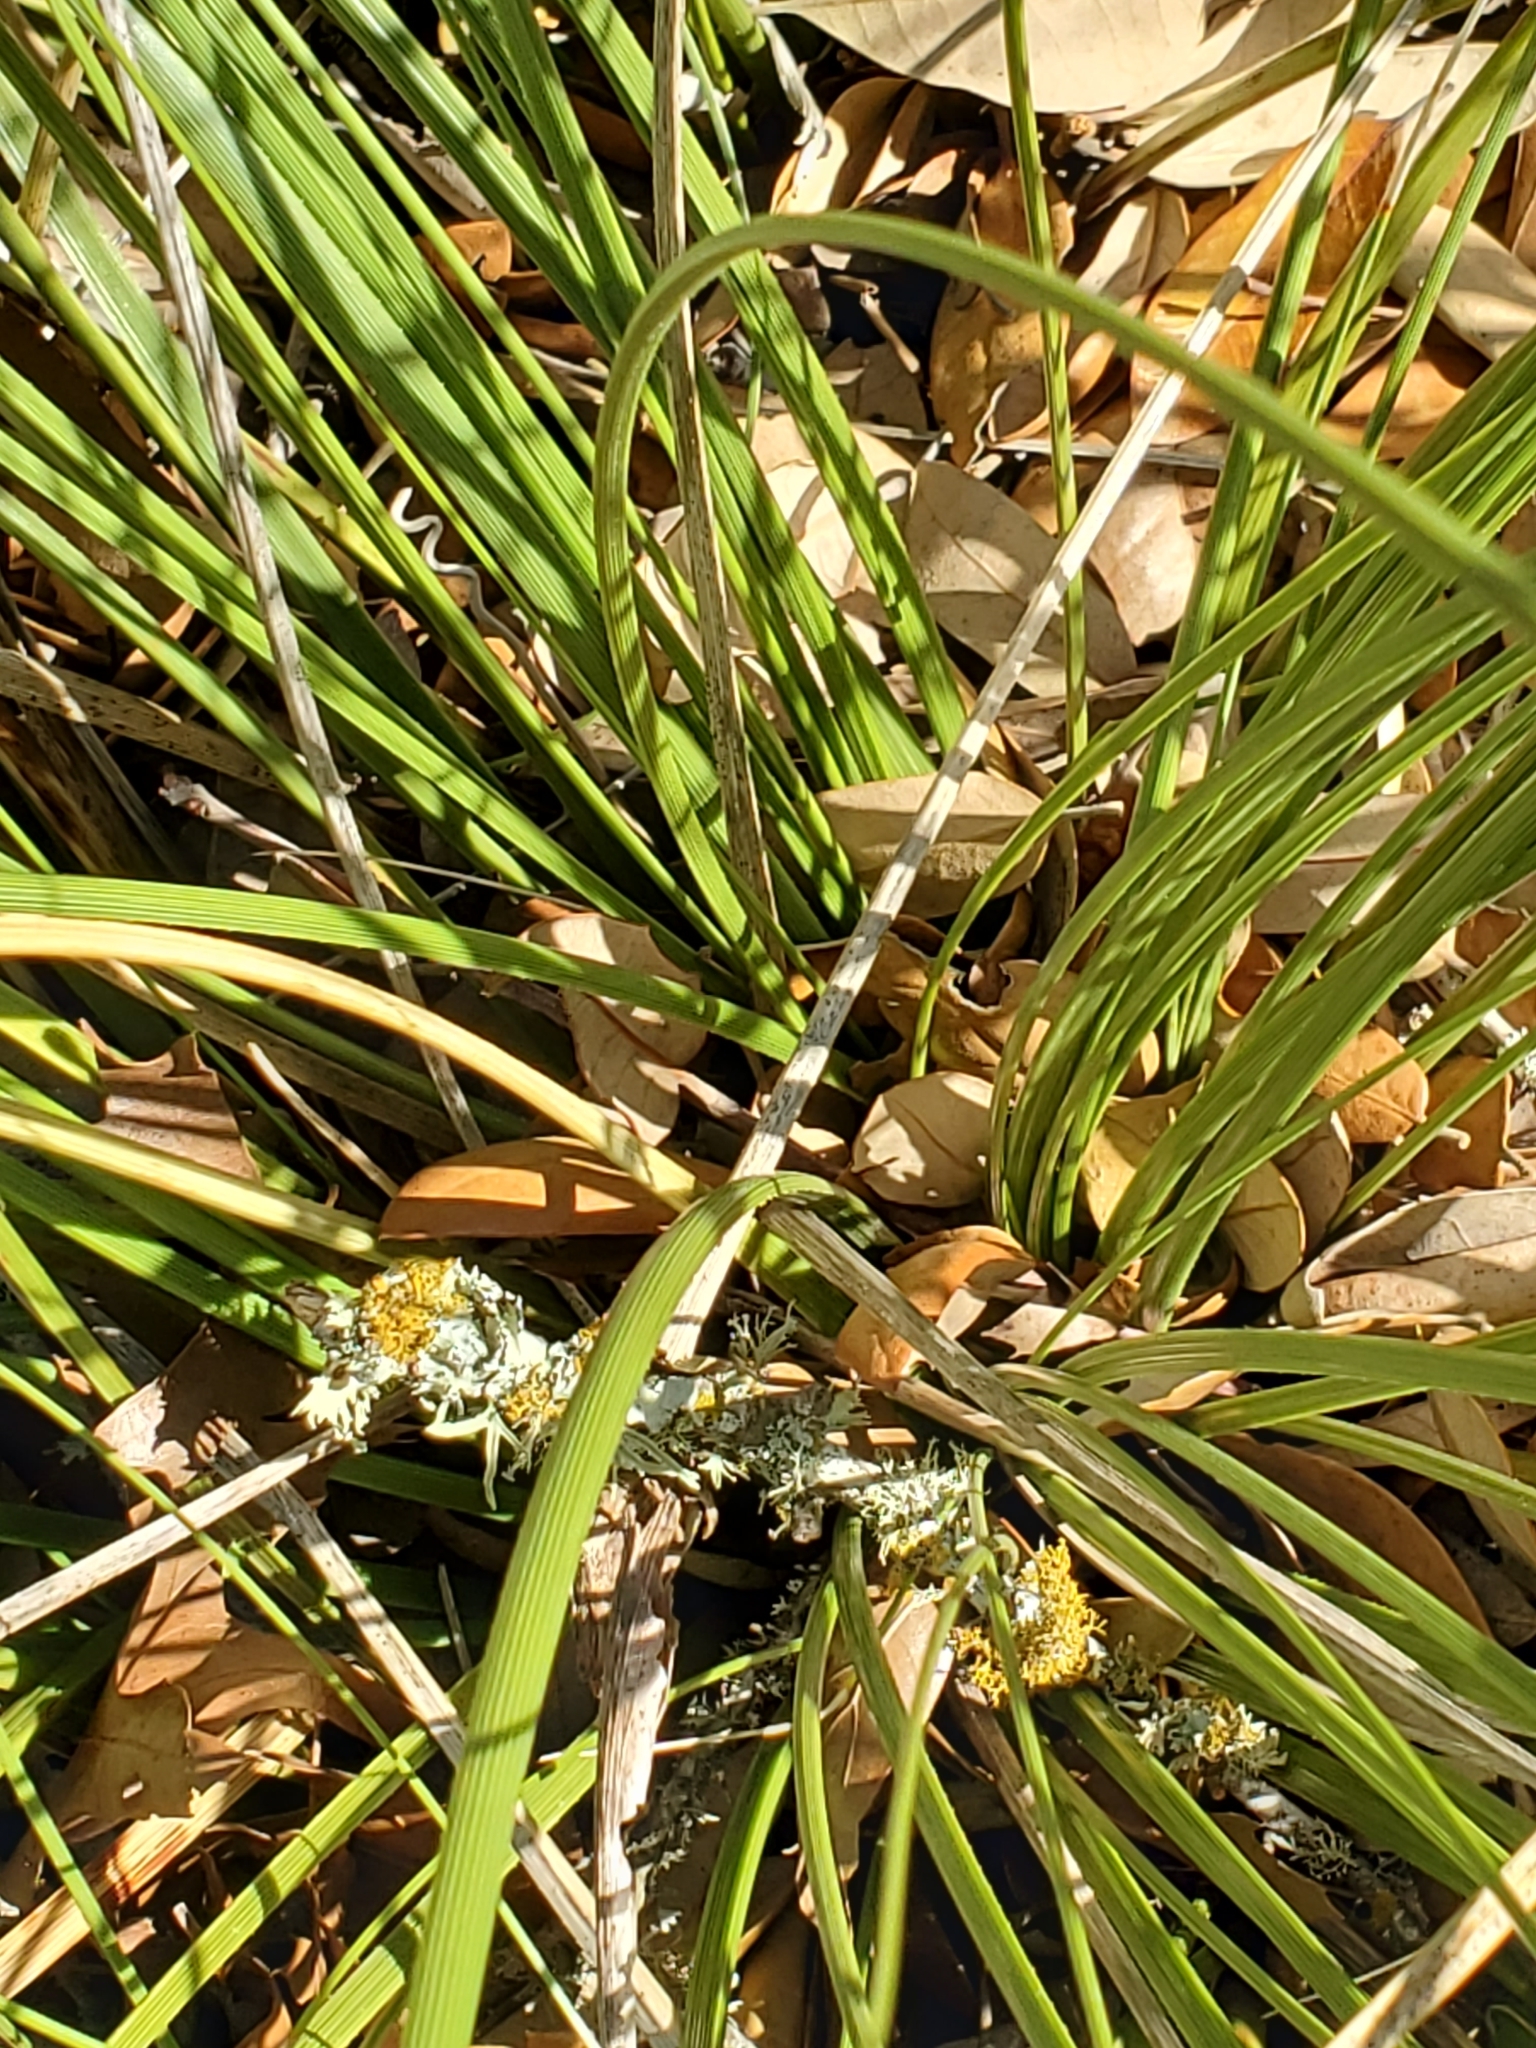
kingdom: Plantae
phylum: Tracheophyta
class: Liliopsida
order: Asparagales
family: Asparagaceae
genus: Nolina
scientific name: Nolina texana
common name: Texas sacahuiste
